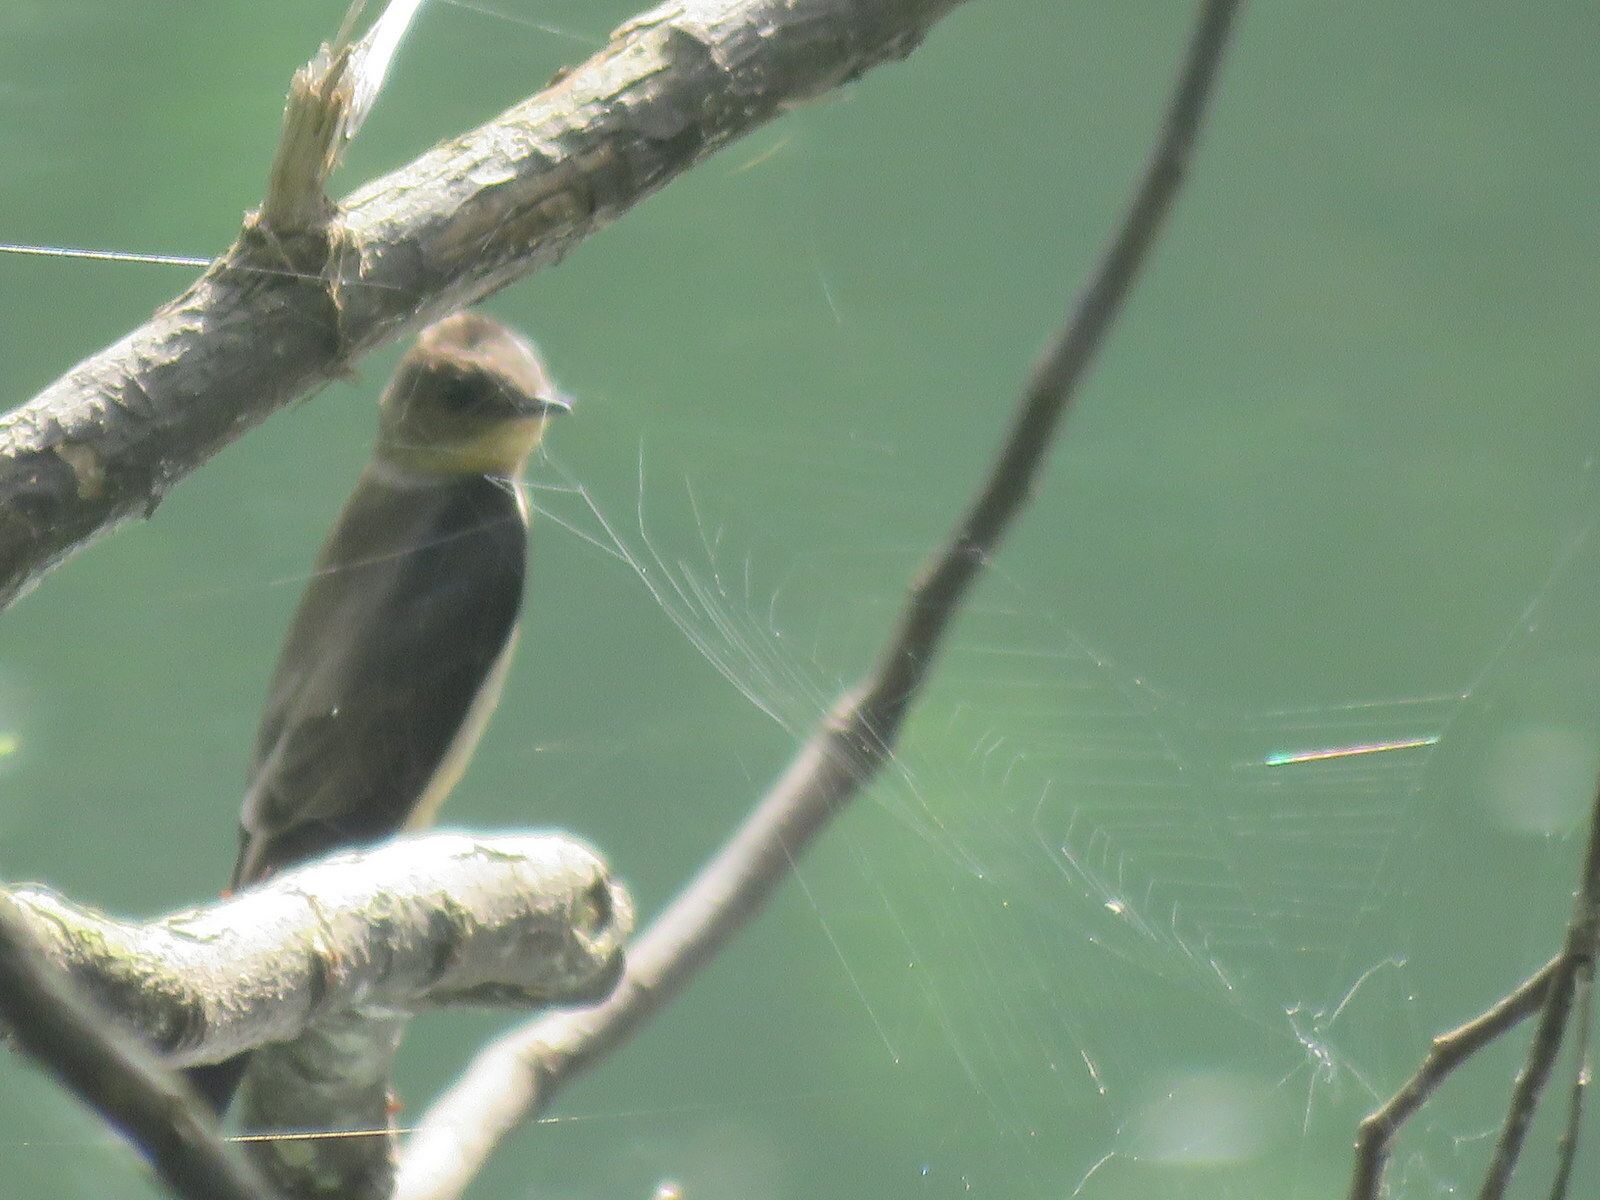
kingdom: Animalia
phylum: Chordata
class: Aves
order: Passeriformes
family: Hirundinidae
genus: Stelgidopteryx
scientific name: Stelgidopteryx ruficollis
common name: Southern rough-winged swallow
